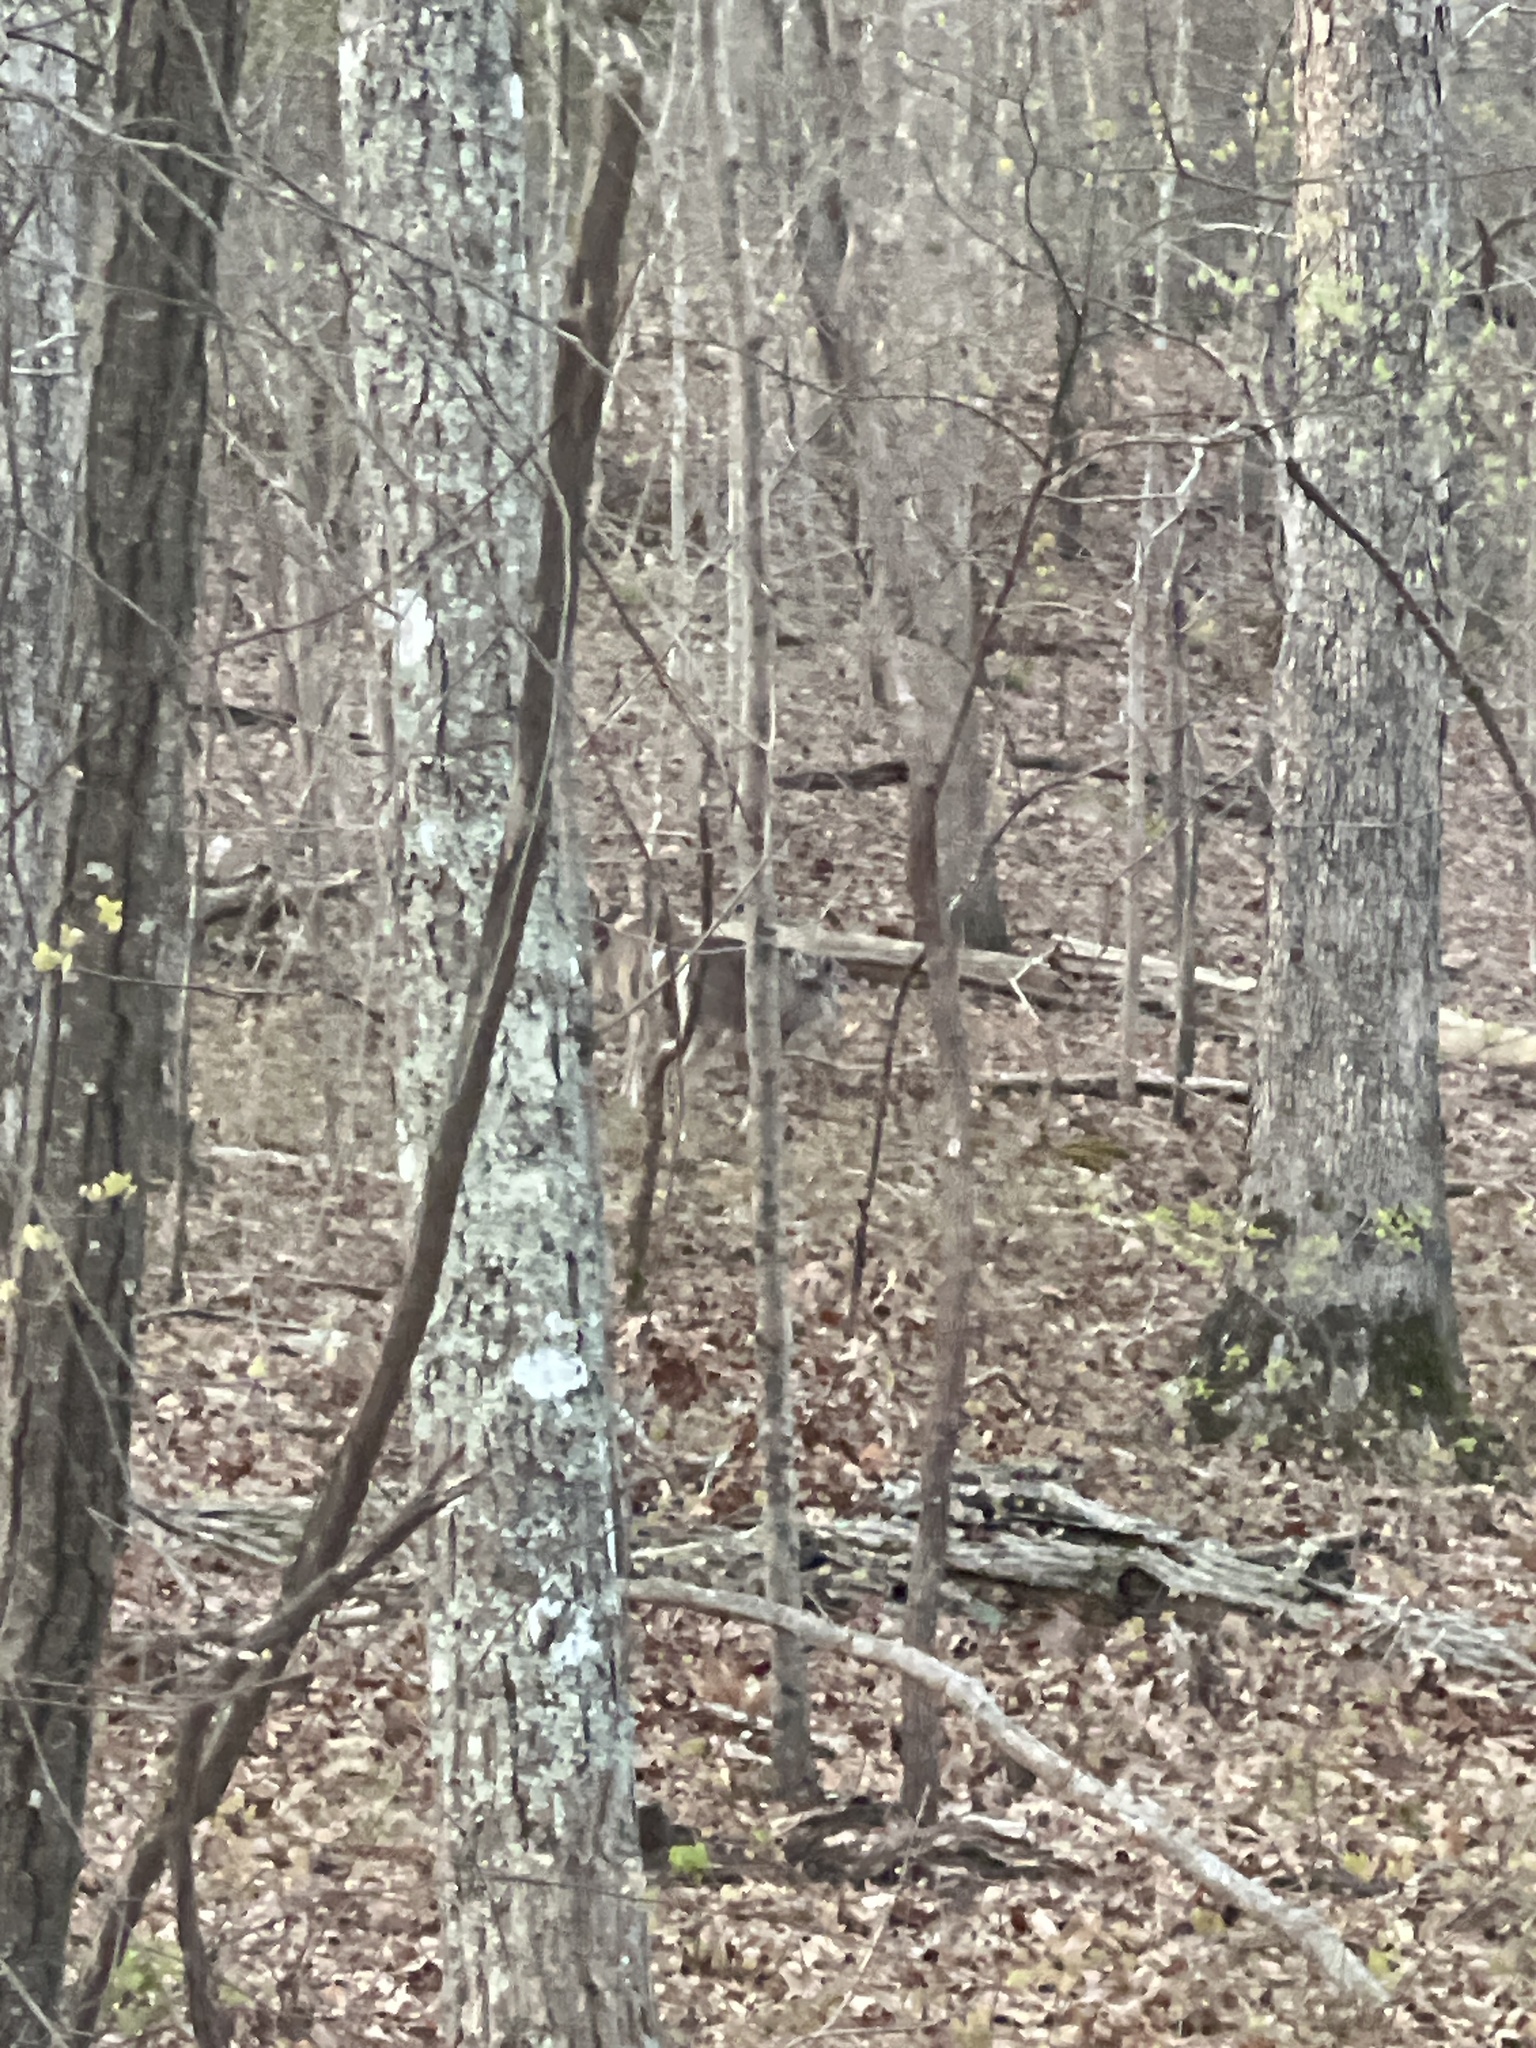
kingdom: Animalia
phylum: Chordata
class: Mammalia
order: Artiodactyla
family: Cervidae
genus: Odocoileus
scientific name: Odocoileus virginianus
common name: White-tailed deer
